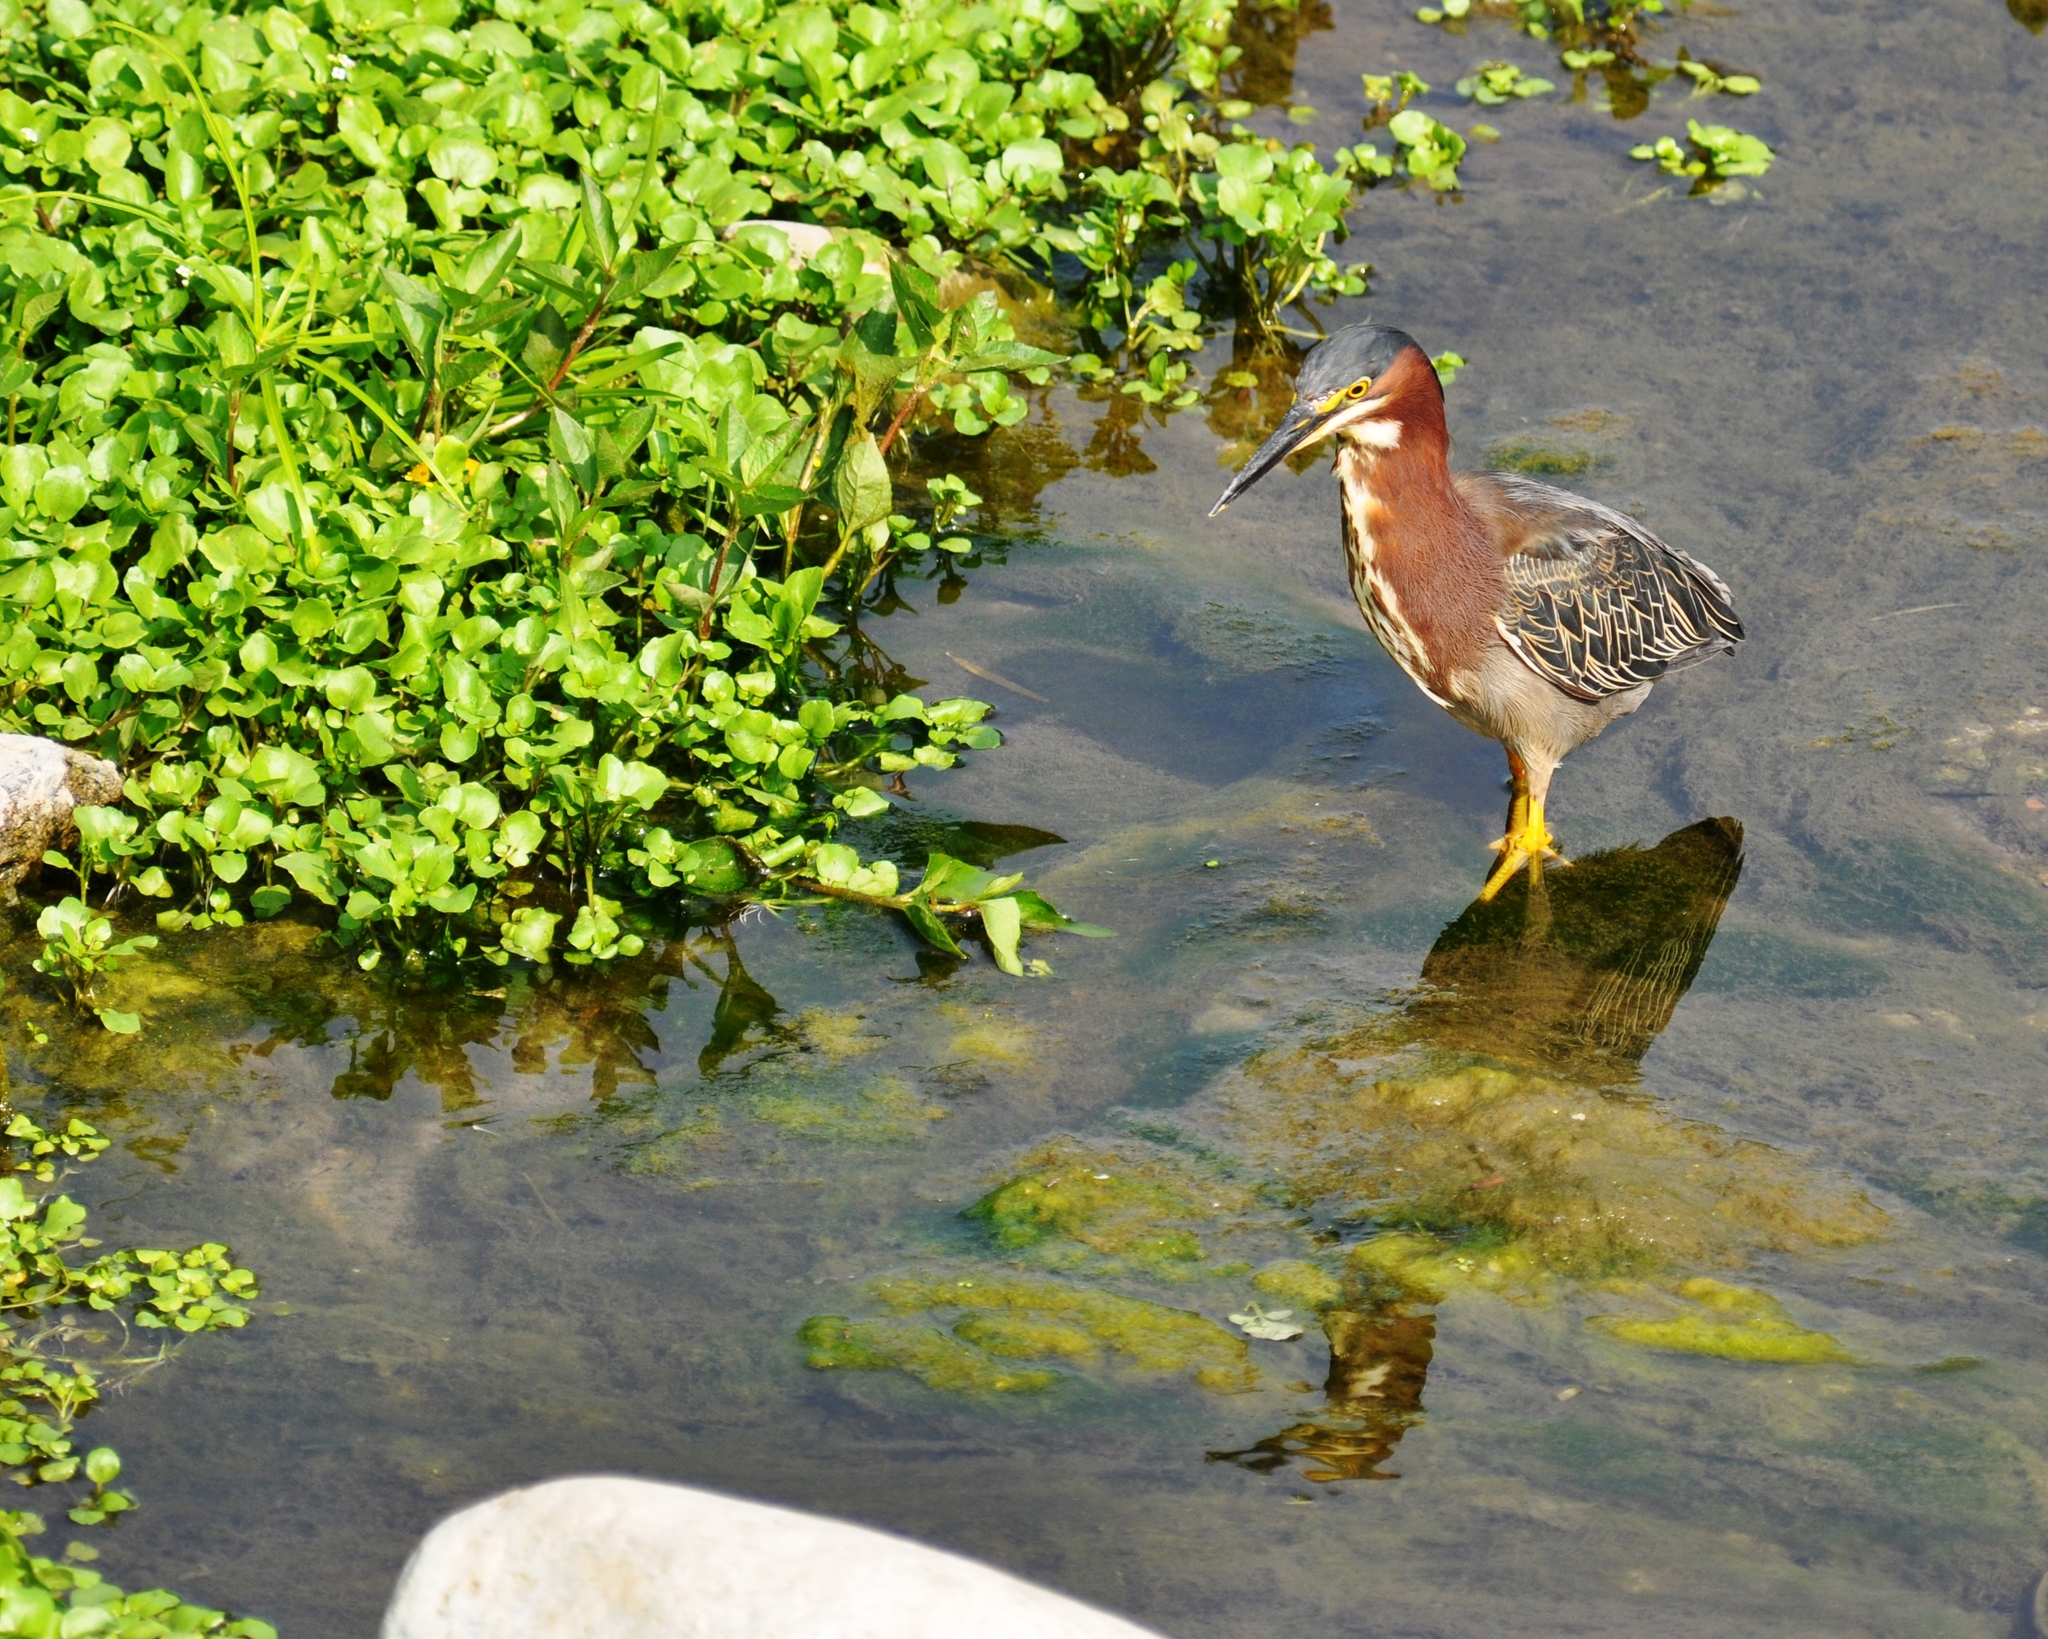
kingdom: Animalia
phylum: Chordata
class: Aves
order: Pelecaniformes
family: Ardeidae
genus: Butorides
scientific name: Butorides virescens
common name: Green heron
